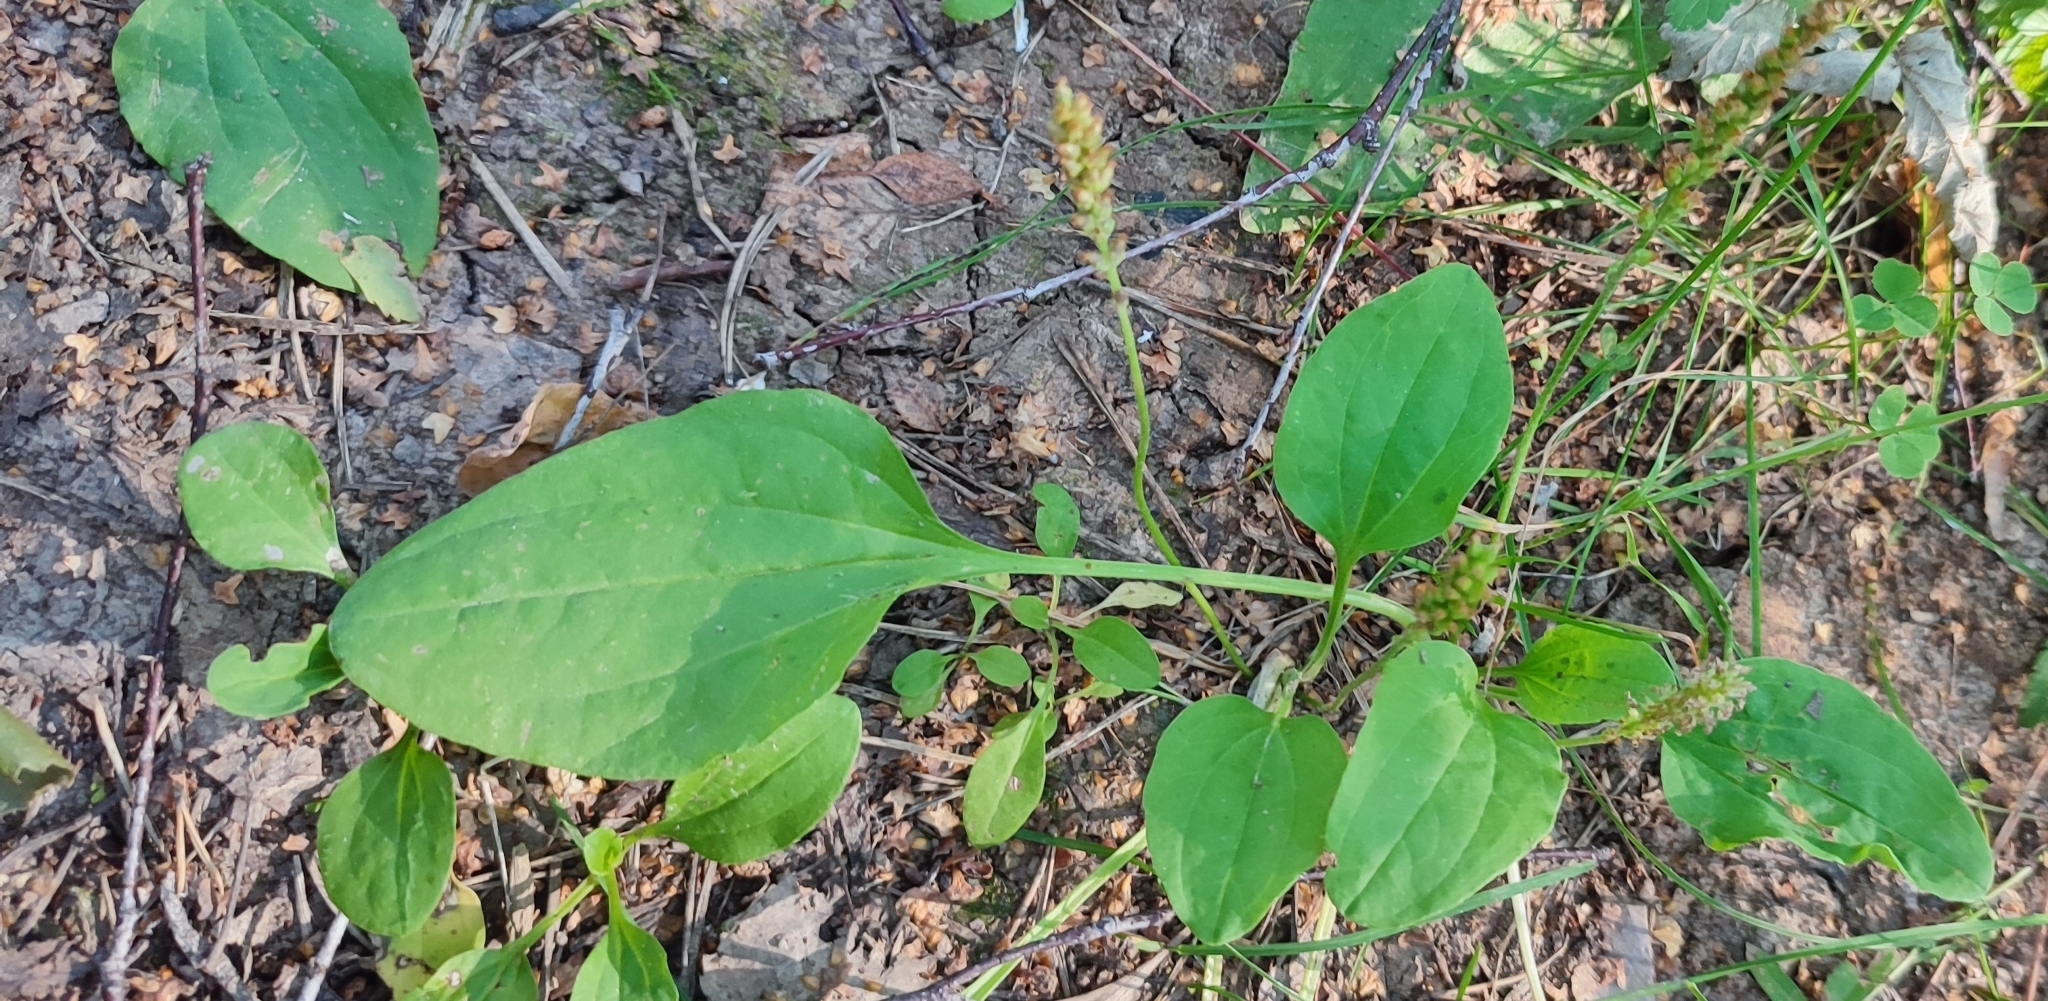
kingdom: Plantae
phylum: Tracheophyta
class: Magnoliopsida
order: Lamiales
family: Plantaginaceae
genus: Plantago
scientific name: Plantago major
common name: Common plantain
